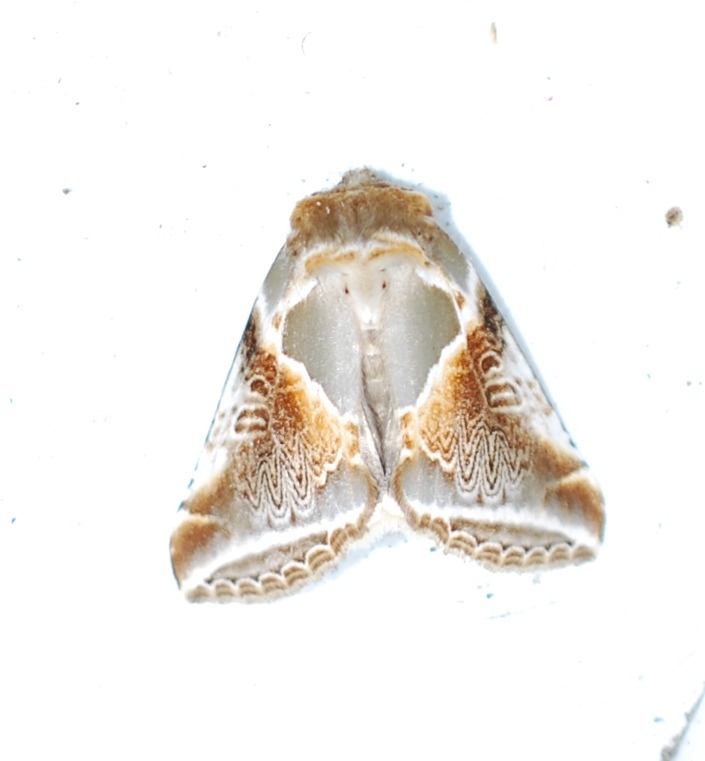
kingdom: Animalia
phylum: Arthropoda
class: Insecta
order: Lepidoptera
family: Drepanidae
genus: Habrosyne
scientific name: Habrosyne pyritoides
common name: Buff arches
